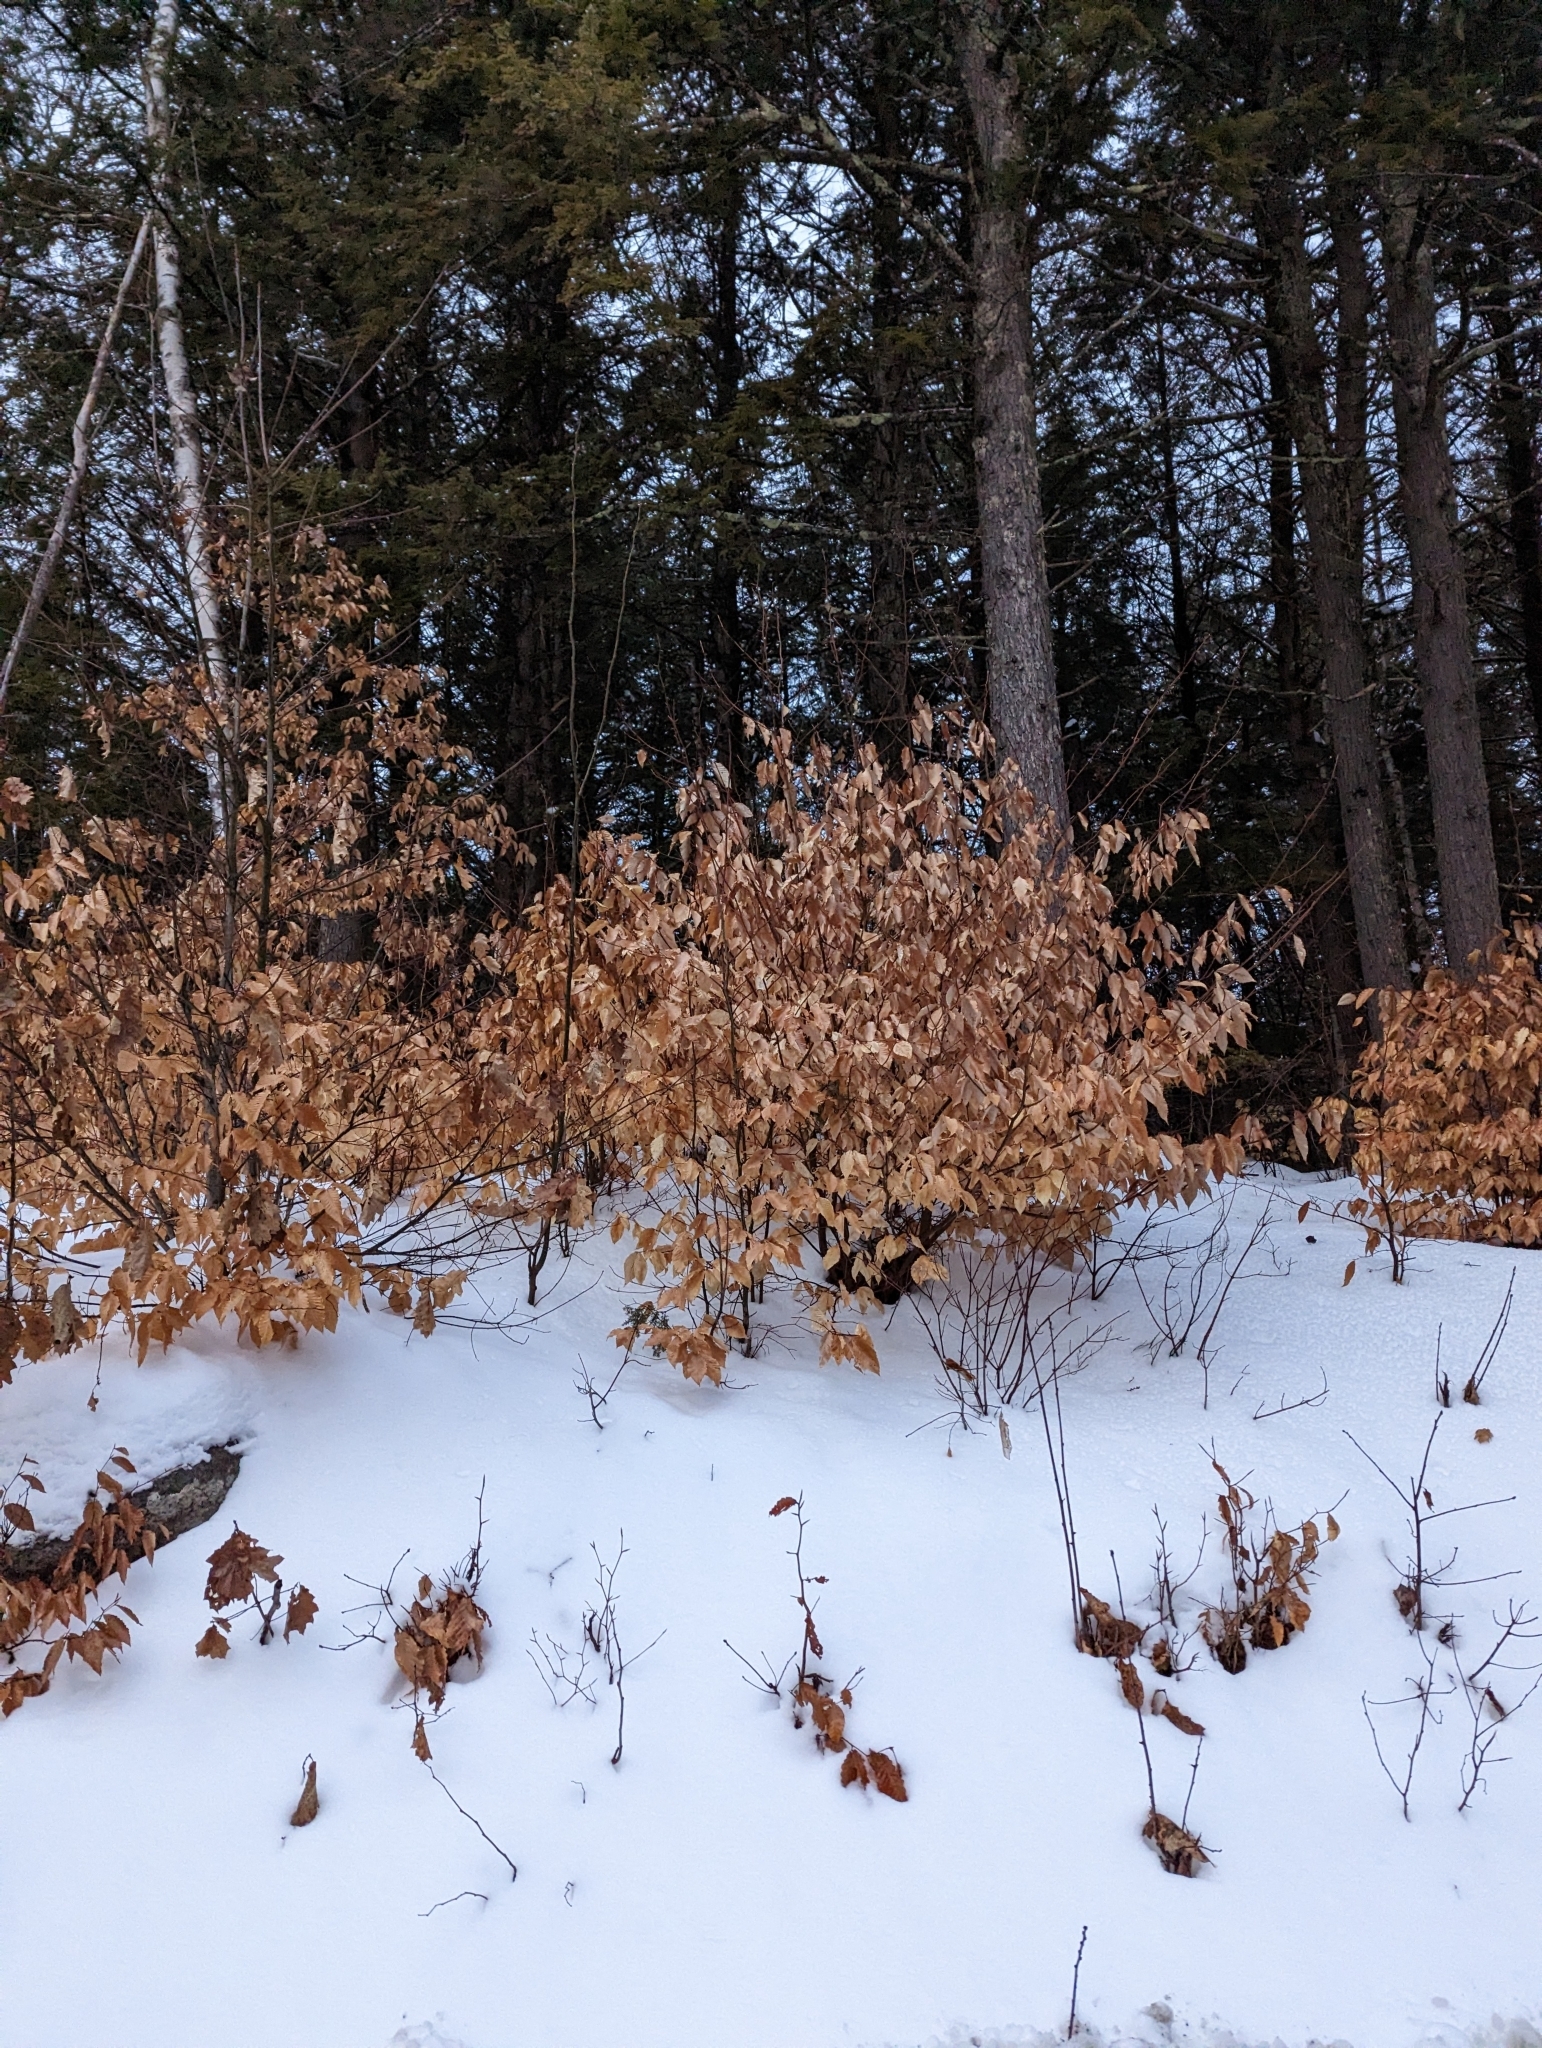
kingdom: Plantae
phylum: Tracheophyta
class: Magnoliopsida
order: Fagales
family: Fagaceae
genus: Fagus
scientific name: Fagus grandifolia
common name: American beech
